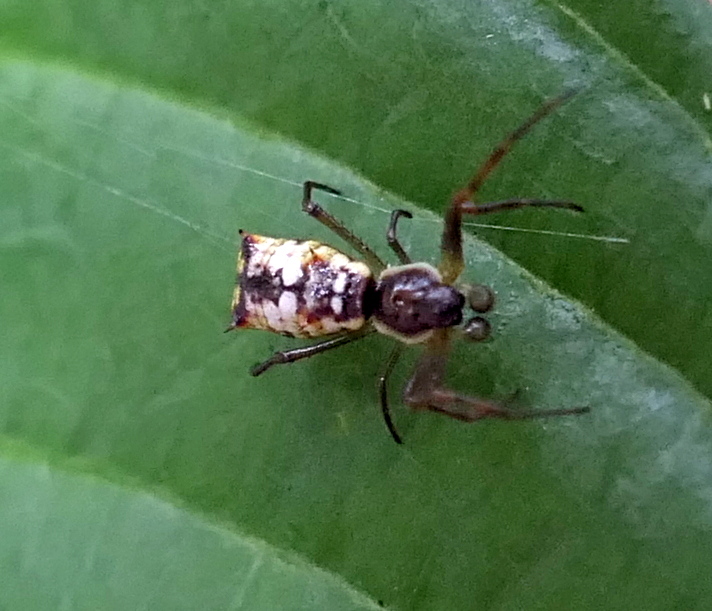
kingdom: Animalia
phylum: Arthropoda
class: Arachnida
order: Araneae
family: Araneidae
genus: Micrathena
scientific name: Micrathena fissispina
